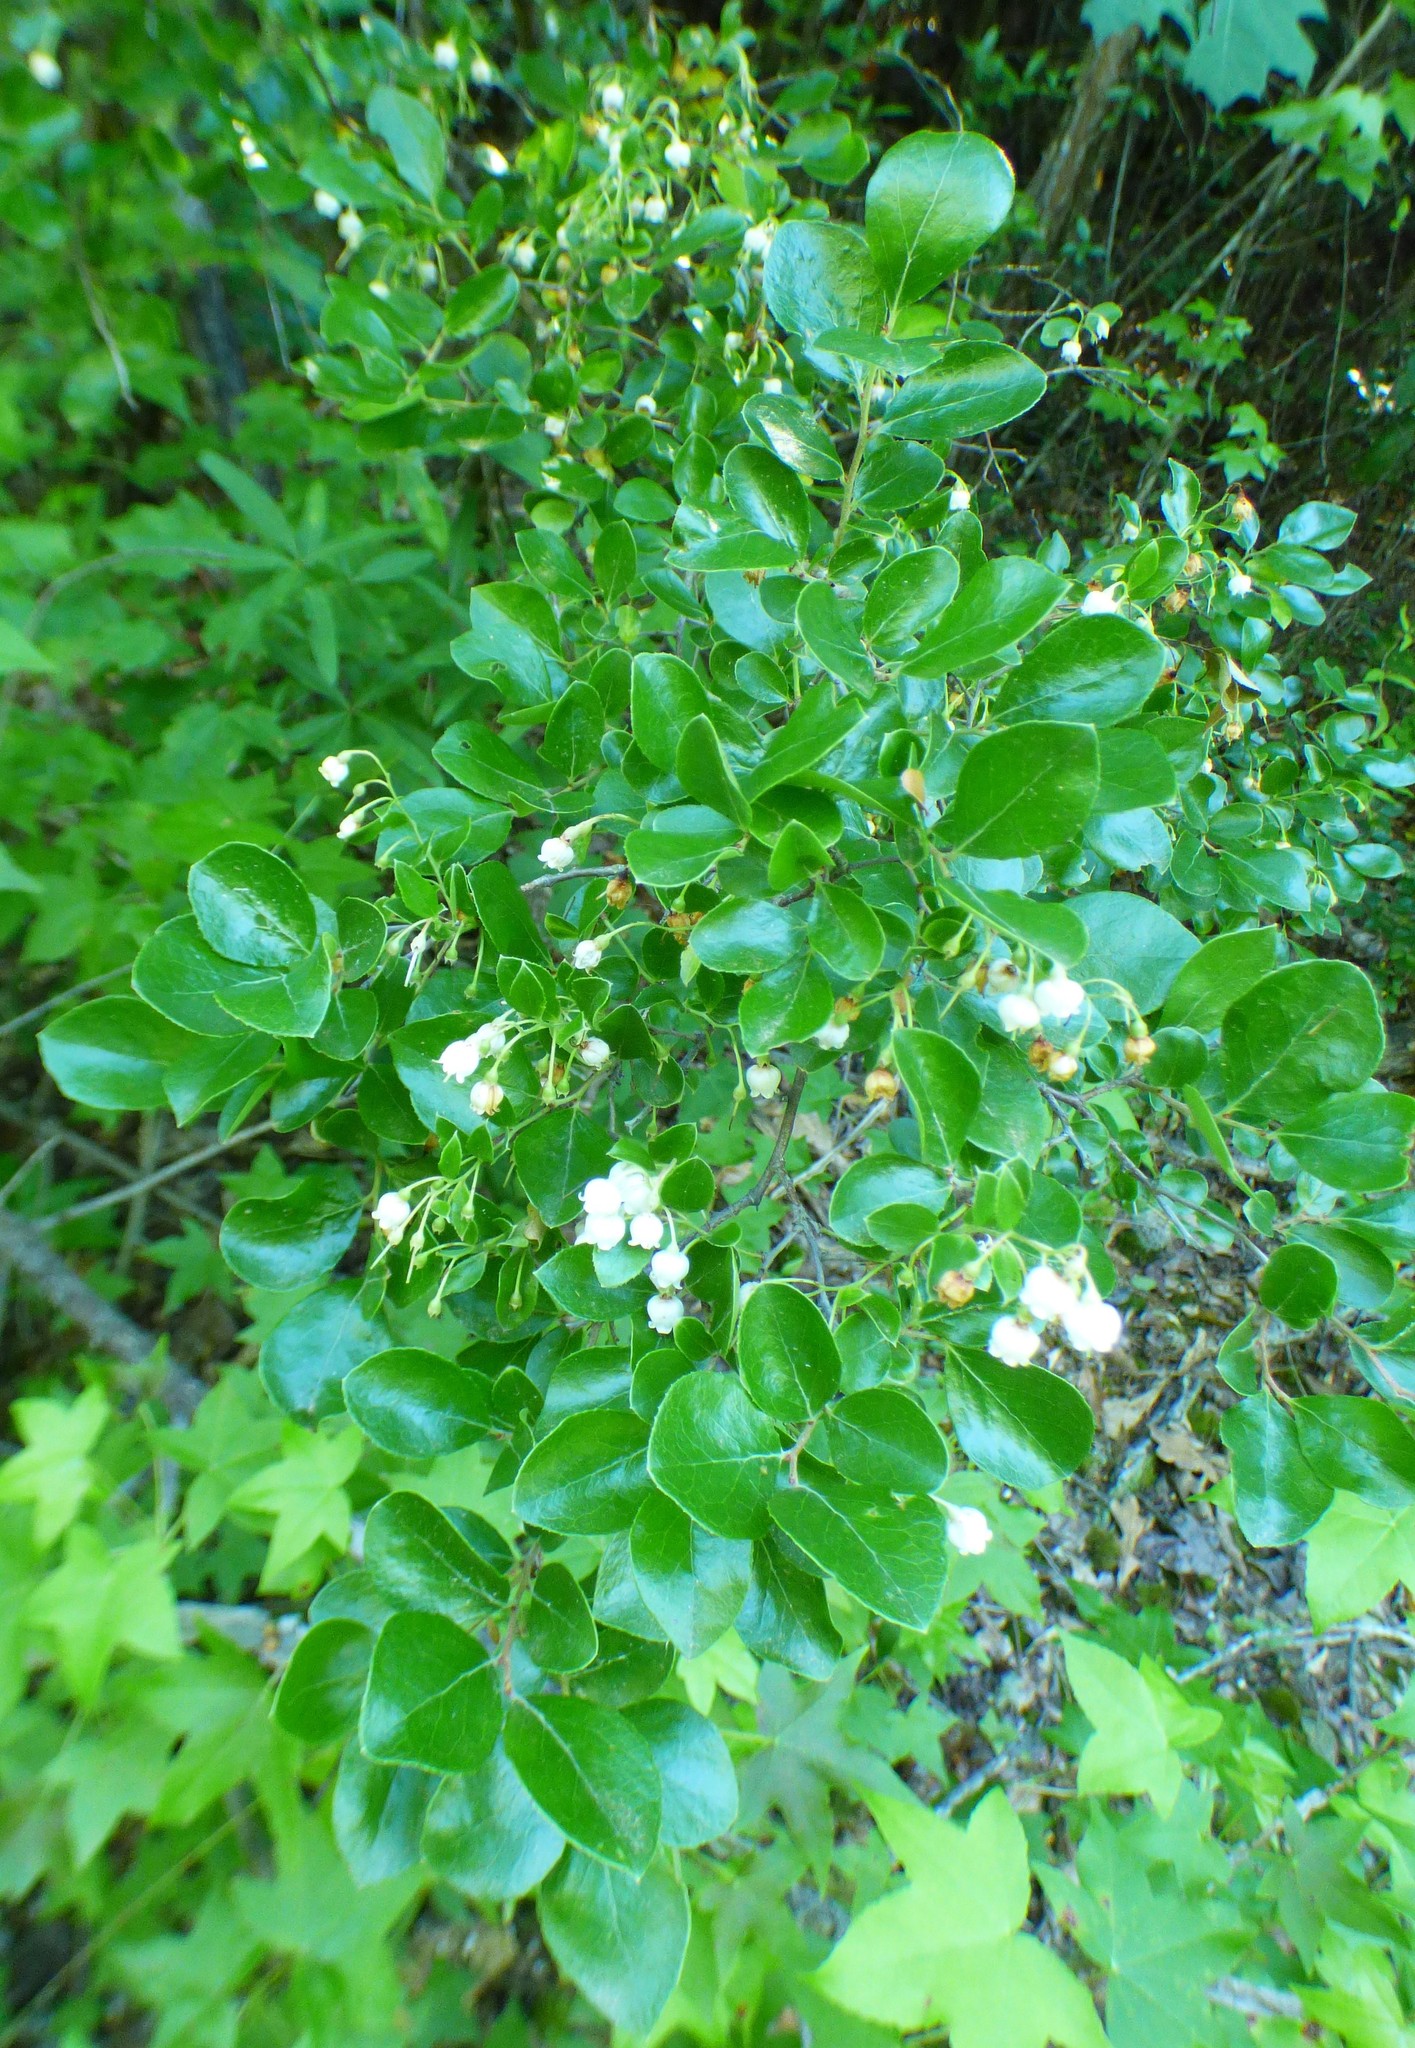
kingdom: Plantae
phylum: Tracheophyta
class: Magnoliopsida
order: Ericales
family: Ericaceae
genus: Vaccinium
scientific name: Vaccinium arboreum
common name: Farkleberry
